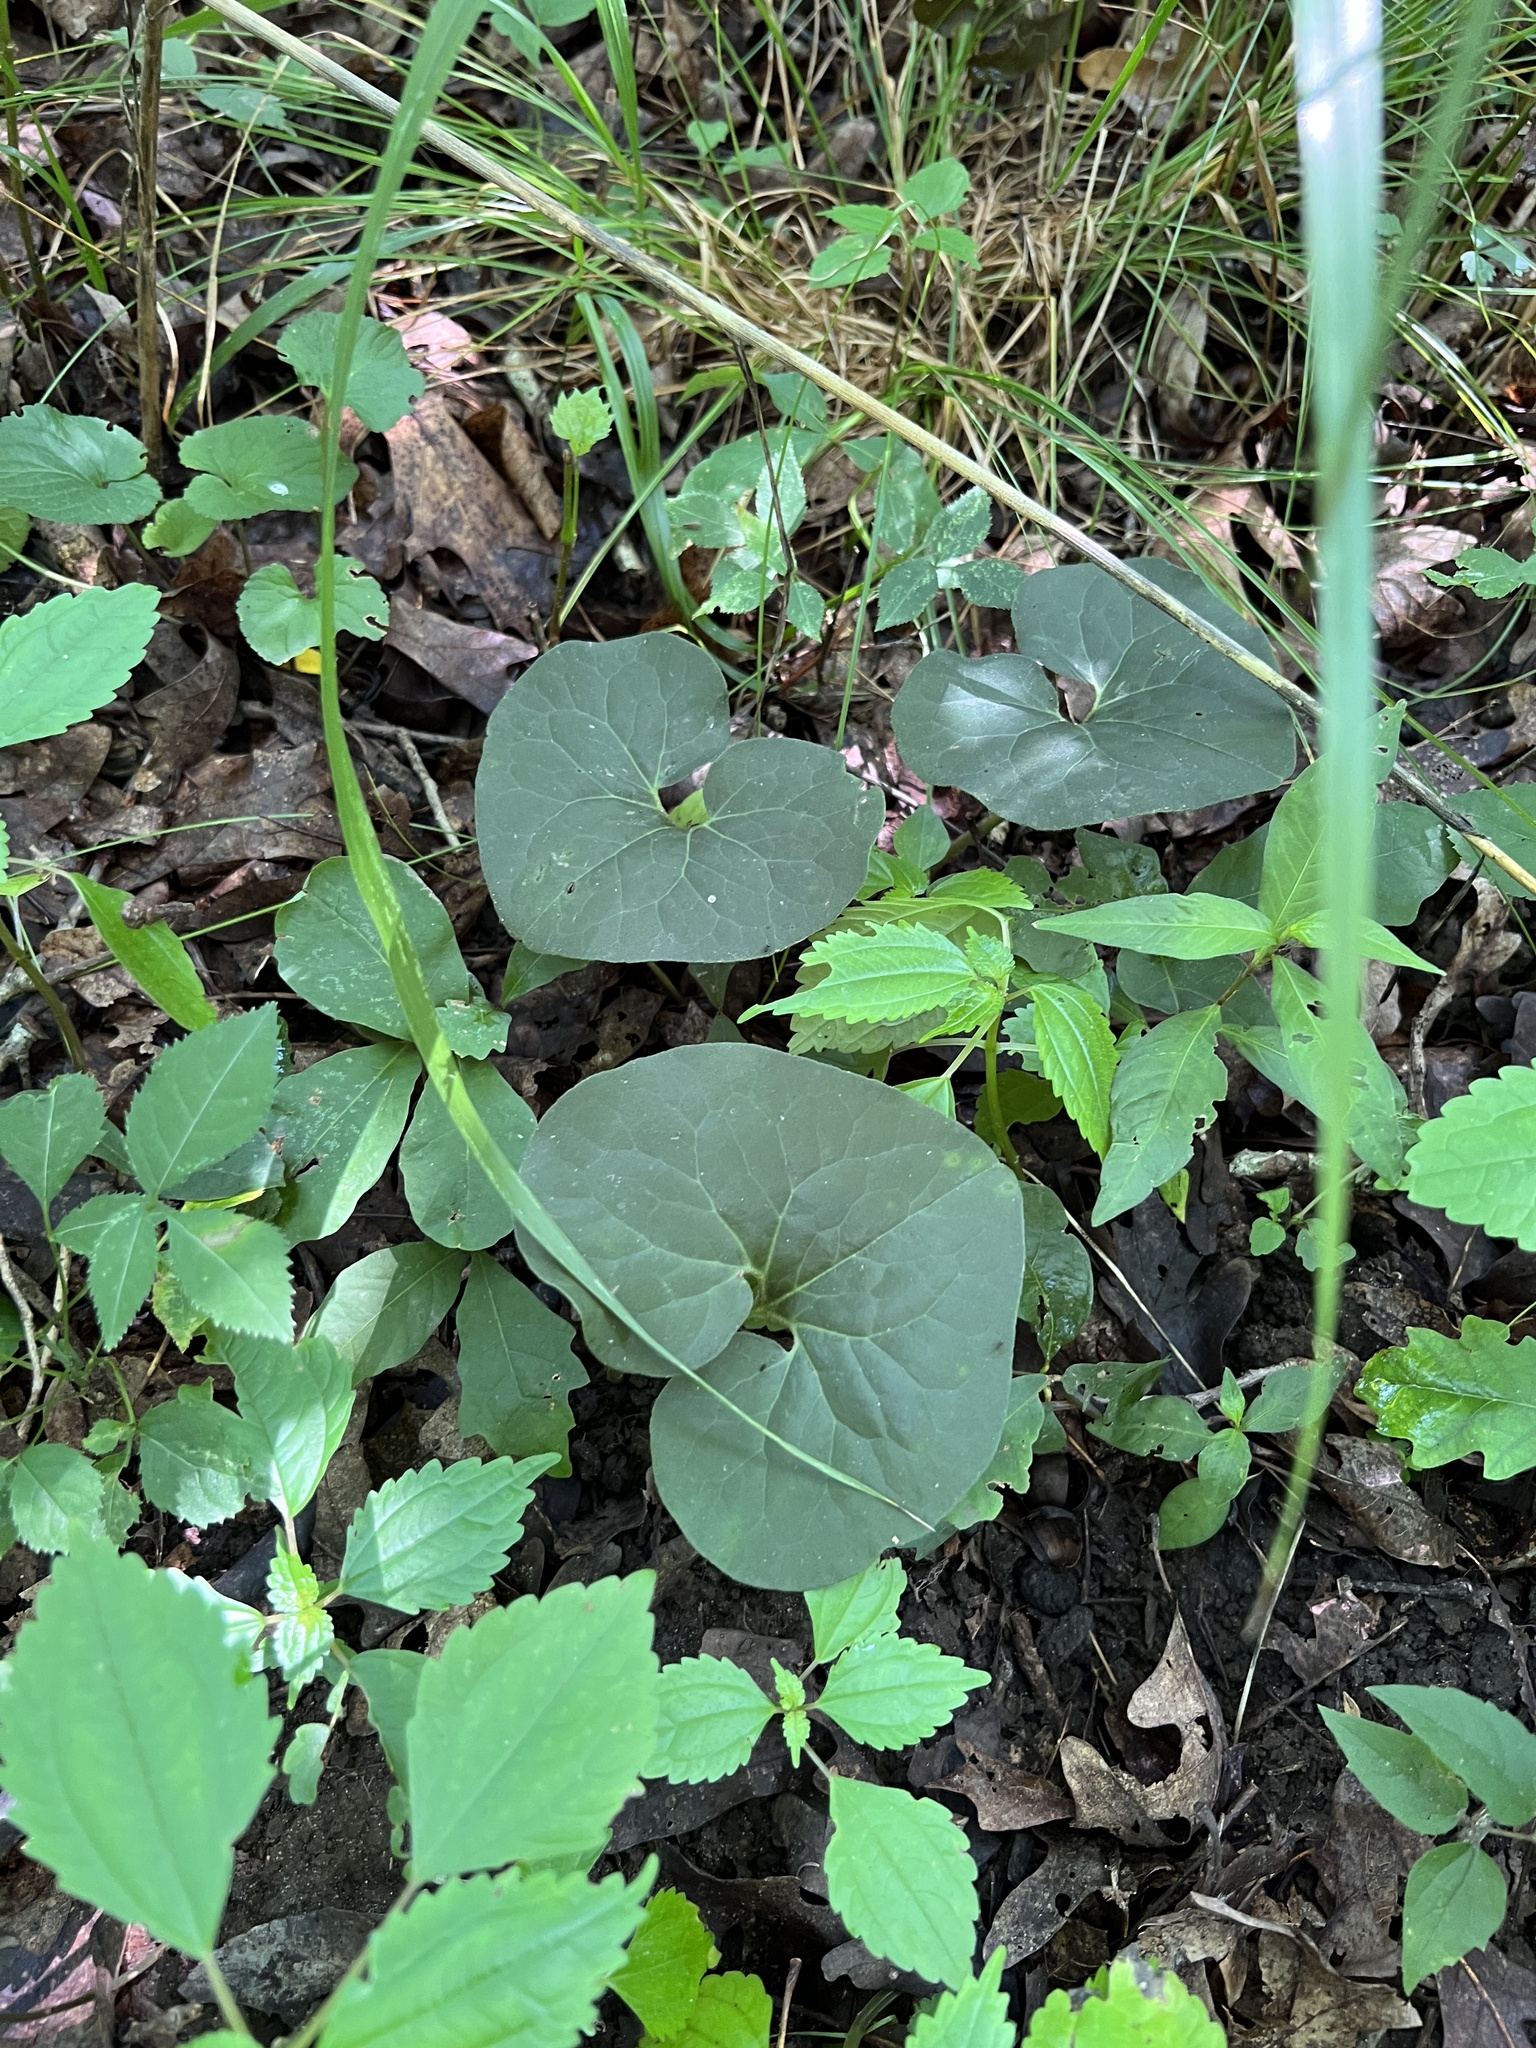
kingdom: Plantae
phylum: Tracheophyta
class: Magnoliopsida
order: Piperales
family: Aristolochiaceae
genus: Asarum
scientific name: Asarum canadense
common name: Wild ginger
